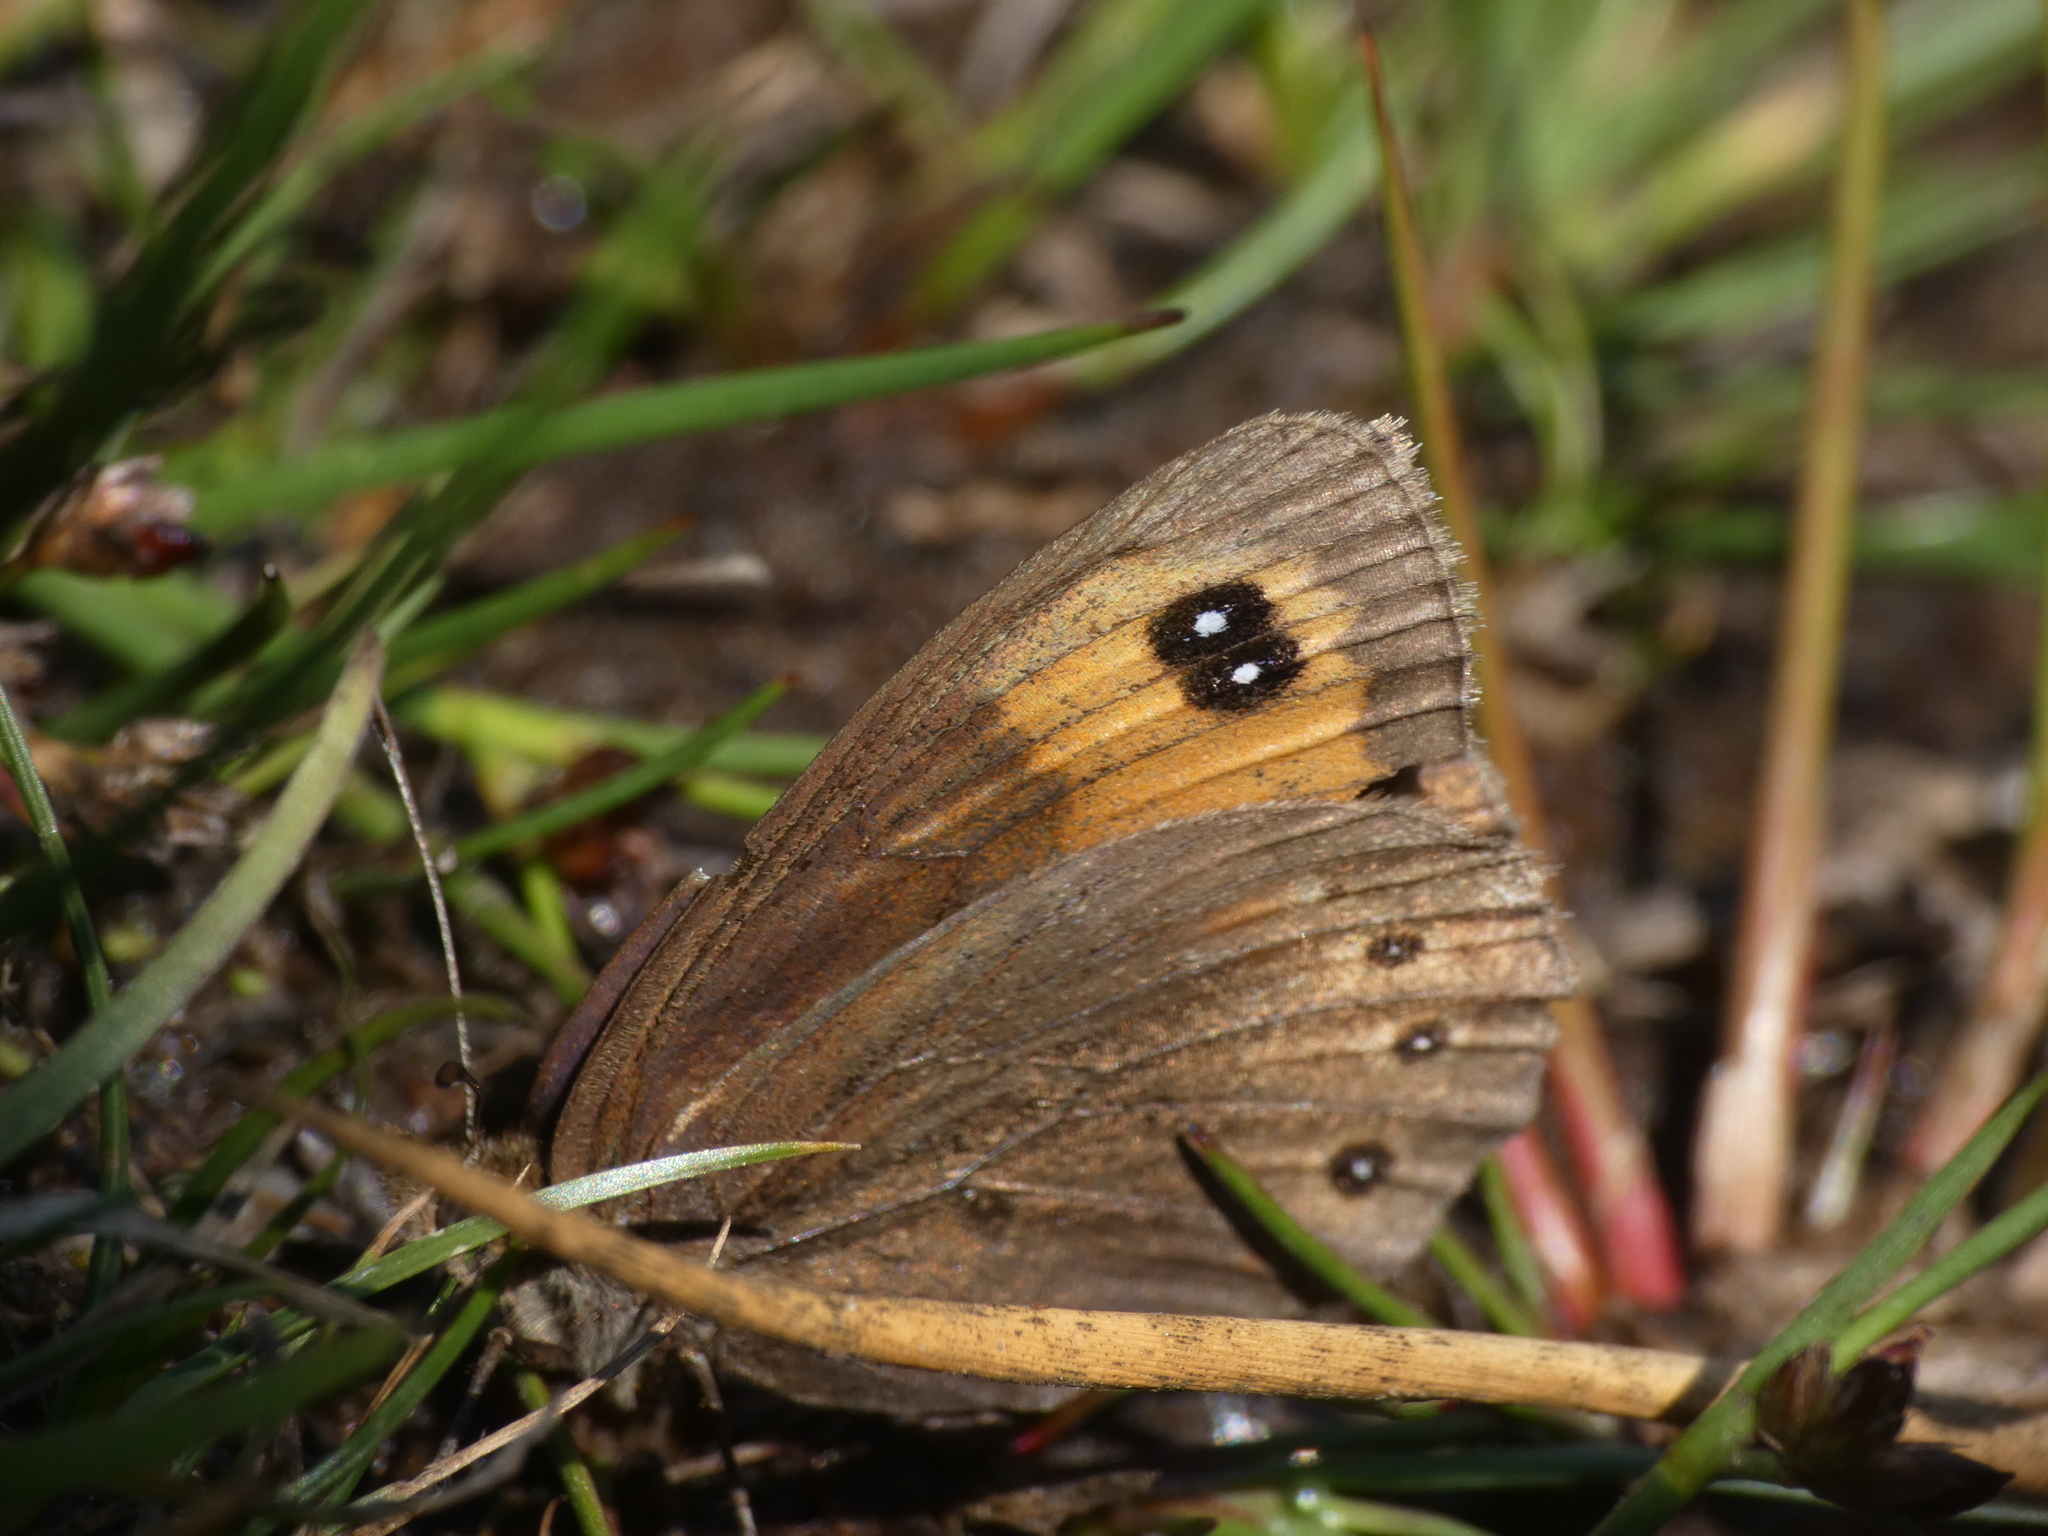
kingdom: Animalia
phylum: Arthropoda
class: Insecta
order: Lepidoptera
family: Nymphalidae
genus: Erebia
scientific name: Erebia meolans
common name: Piedmont ringlet
